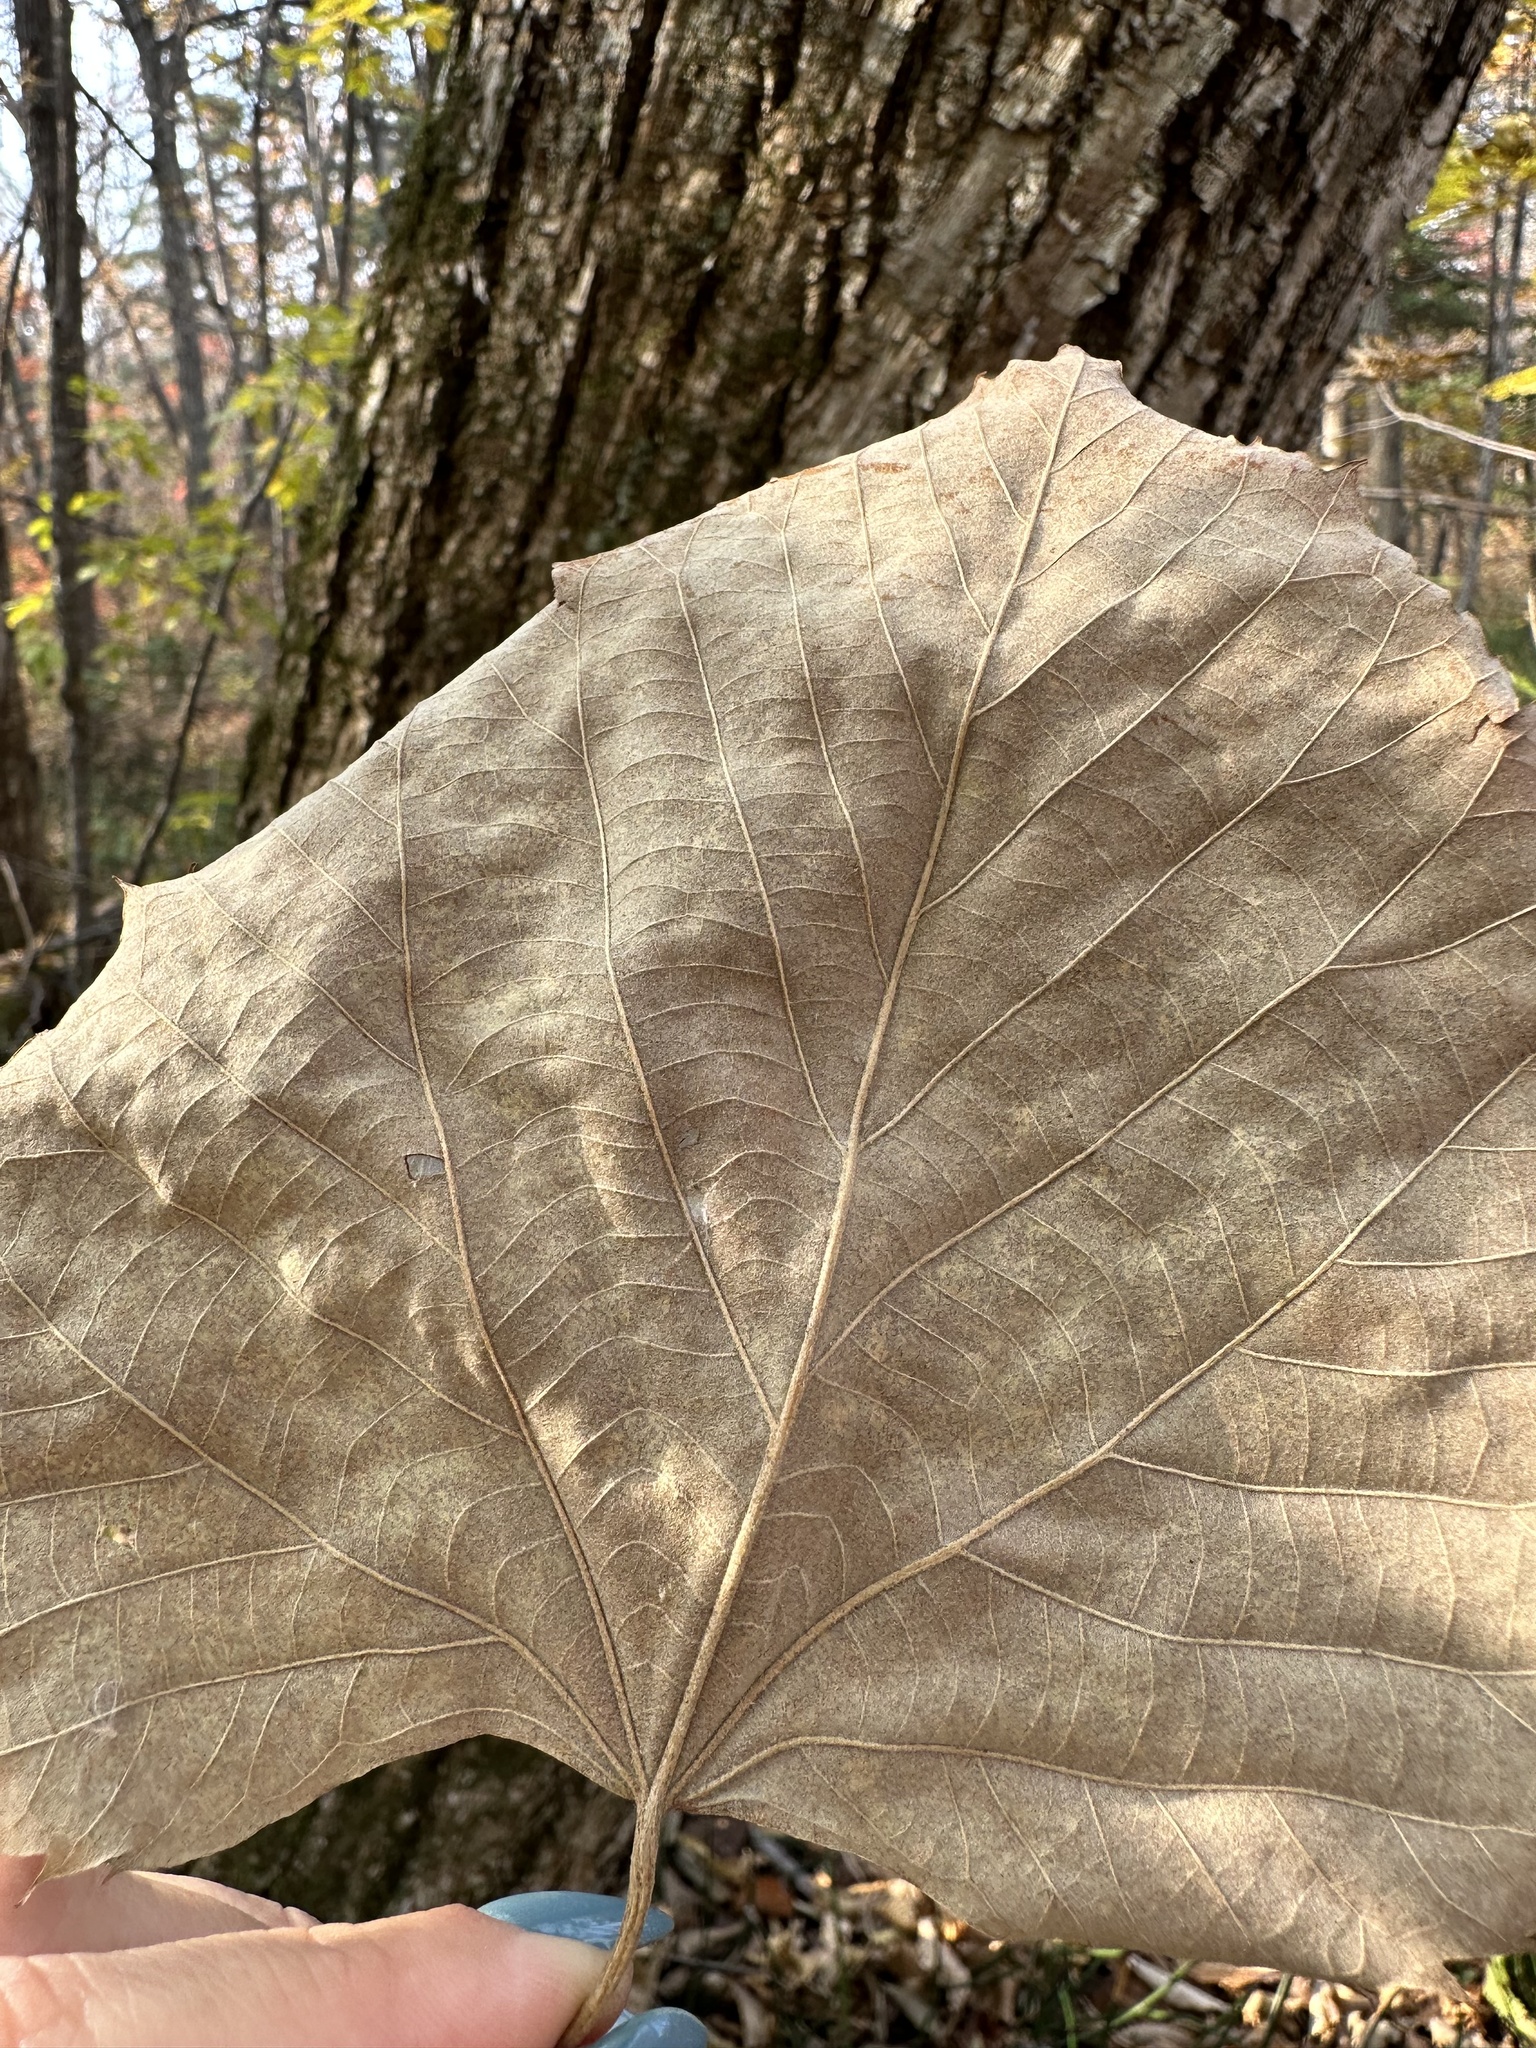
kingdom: Plantae
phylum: Tracheophyta
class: Magnoliopsida
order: Malvales
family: Malvaceae
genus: Tilia
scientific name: Tilia mandshurica
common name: Manchurian linden
